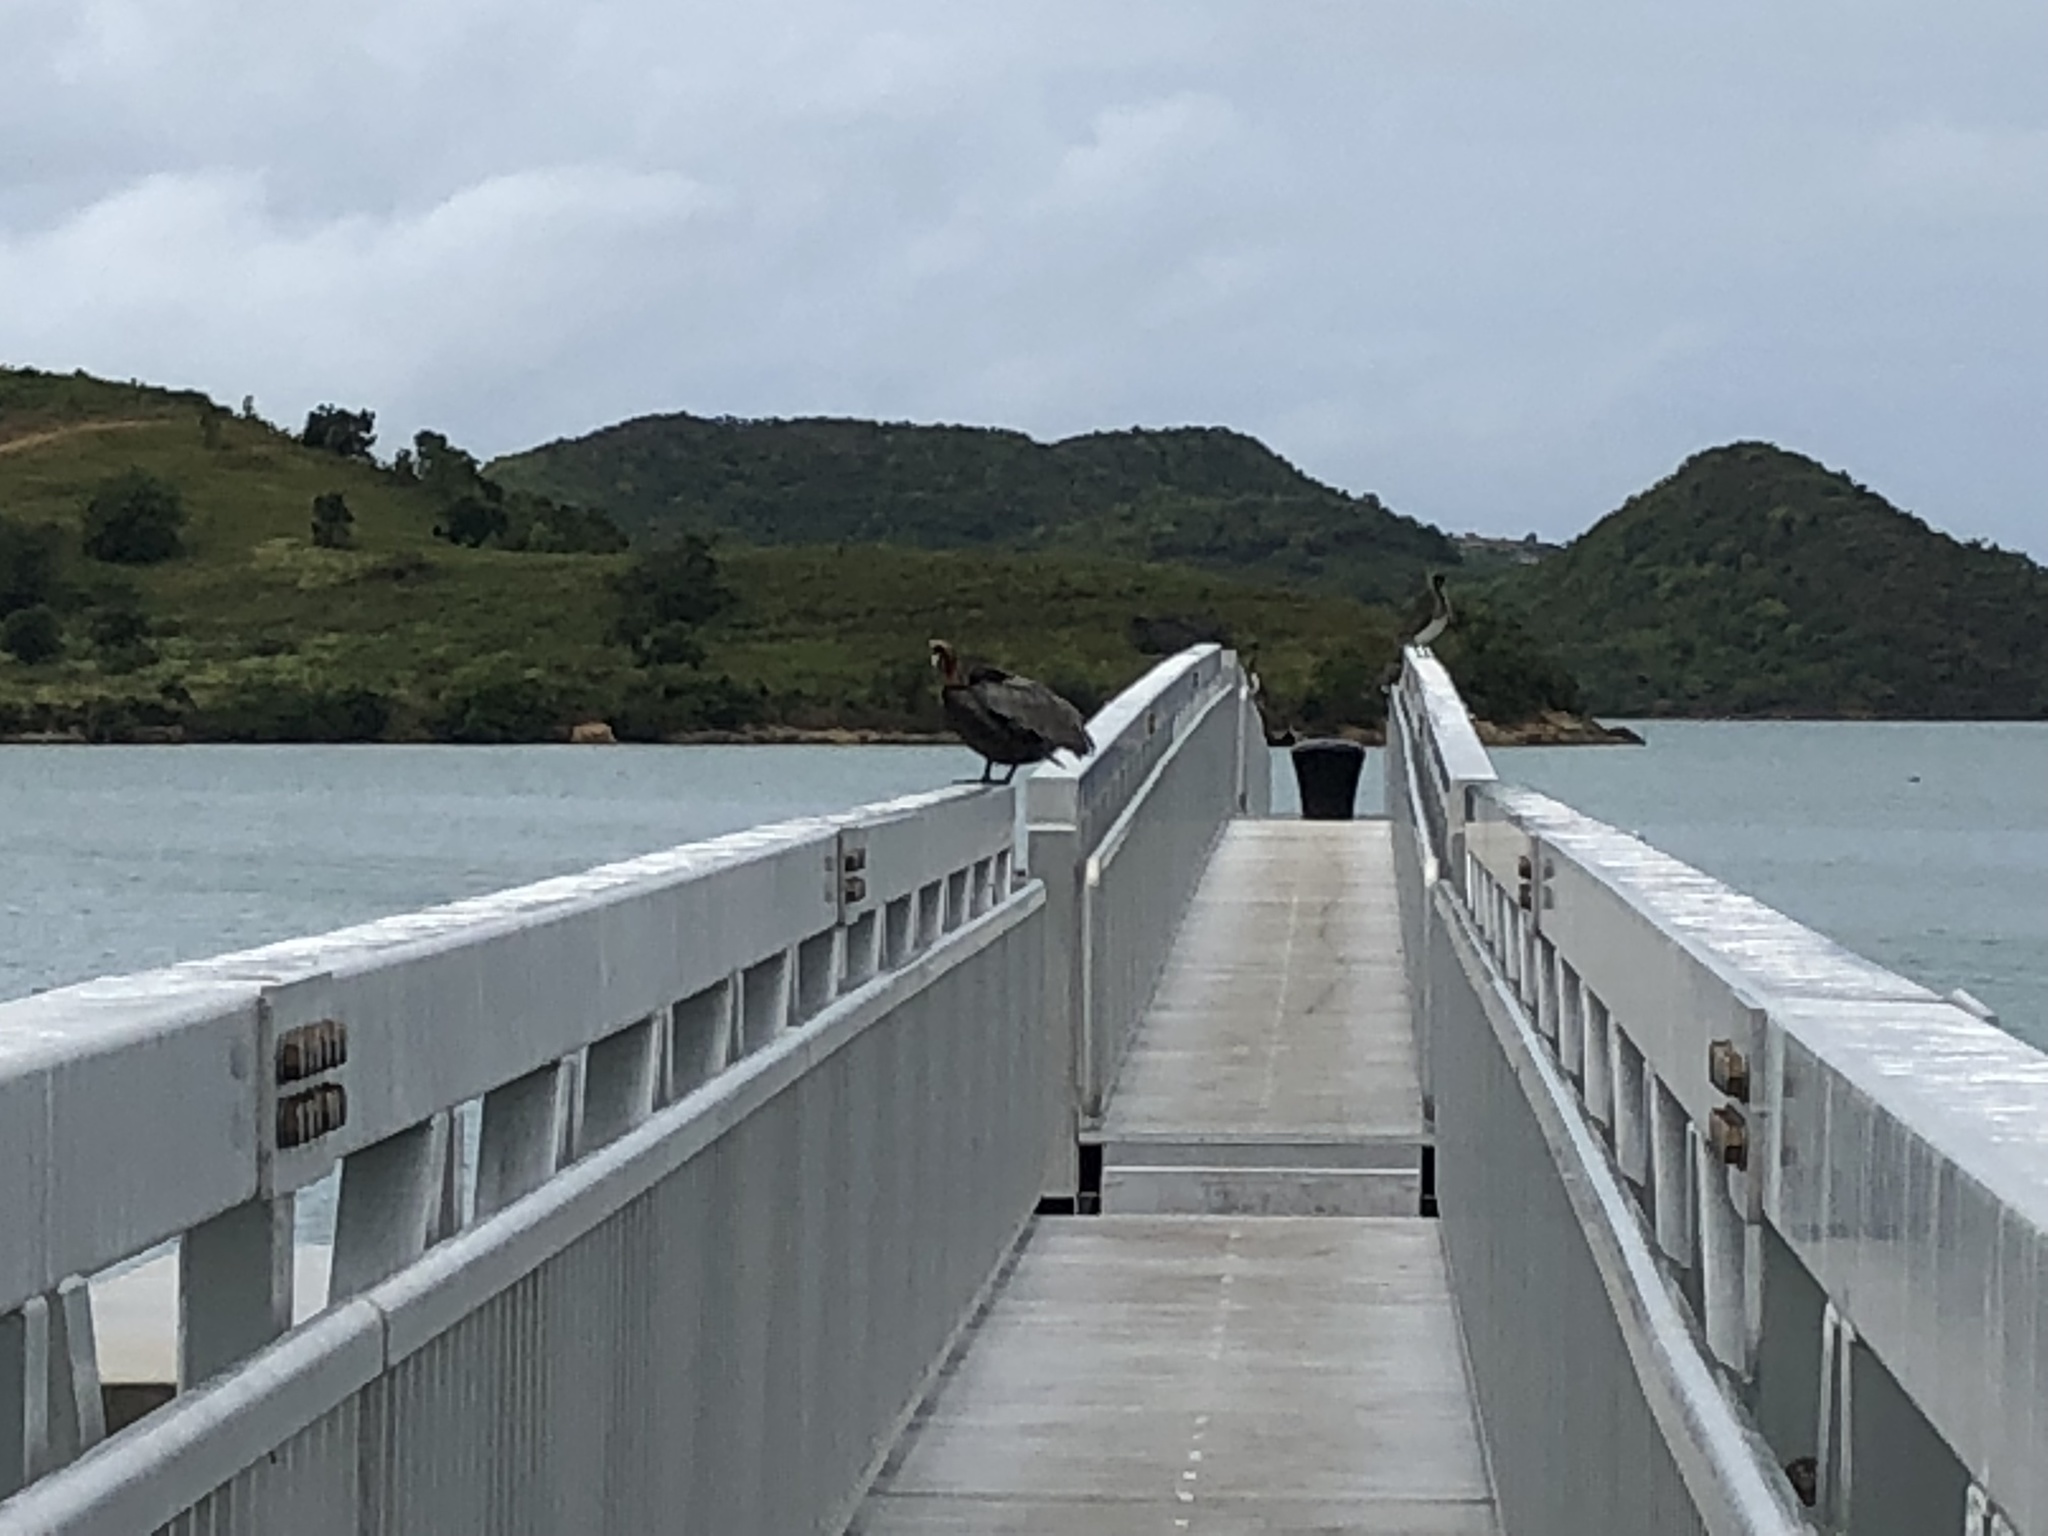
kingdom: Animalia
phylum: Chordata
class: Aves
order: Pelecaniformes
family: Pelecanidae
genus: Pelecanus
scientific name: Pelecanus occidentalis
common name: Brown pelican
